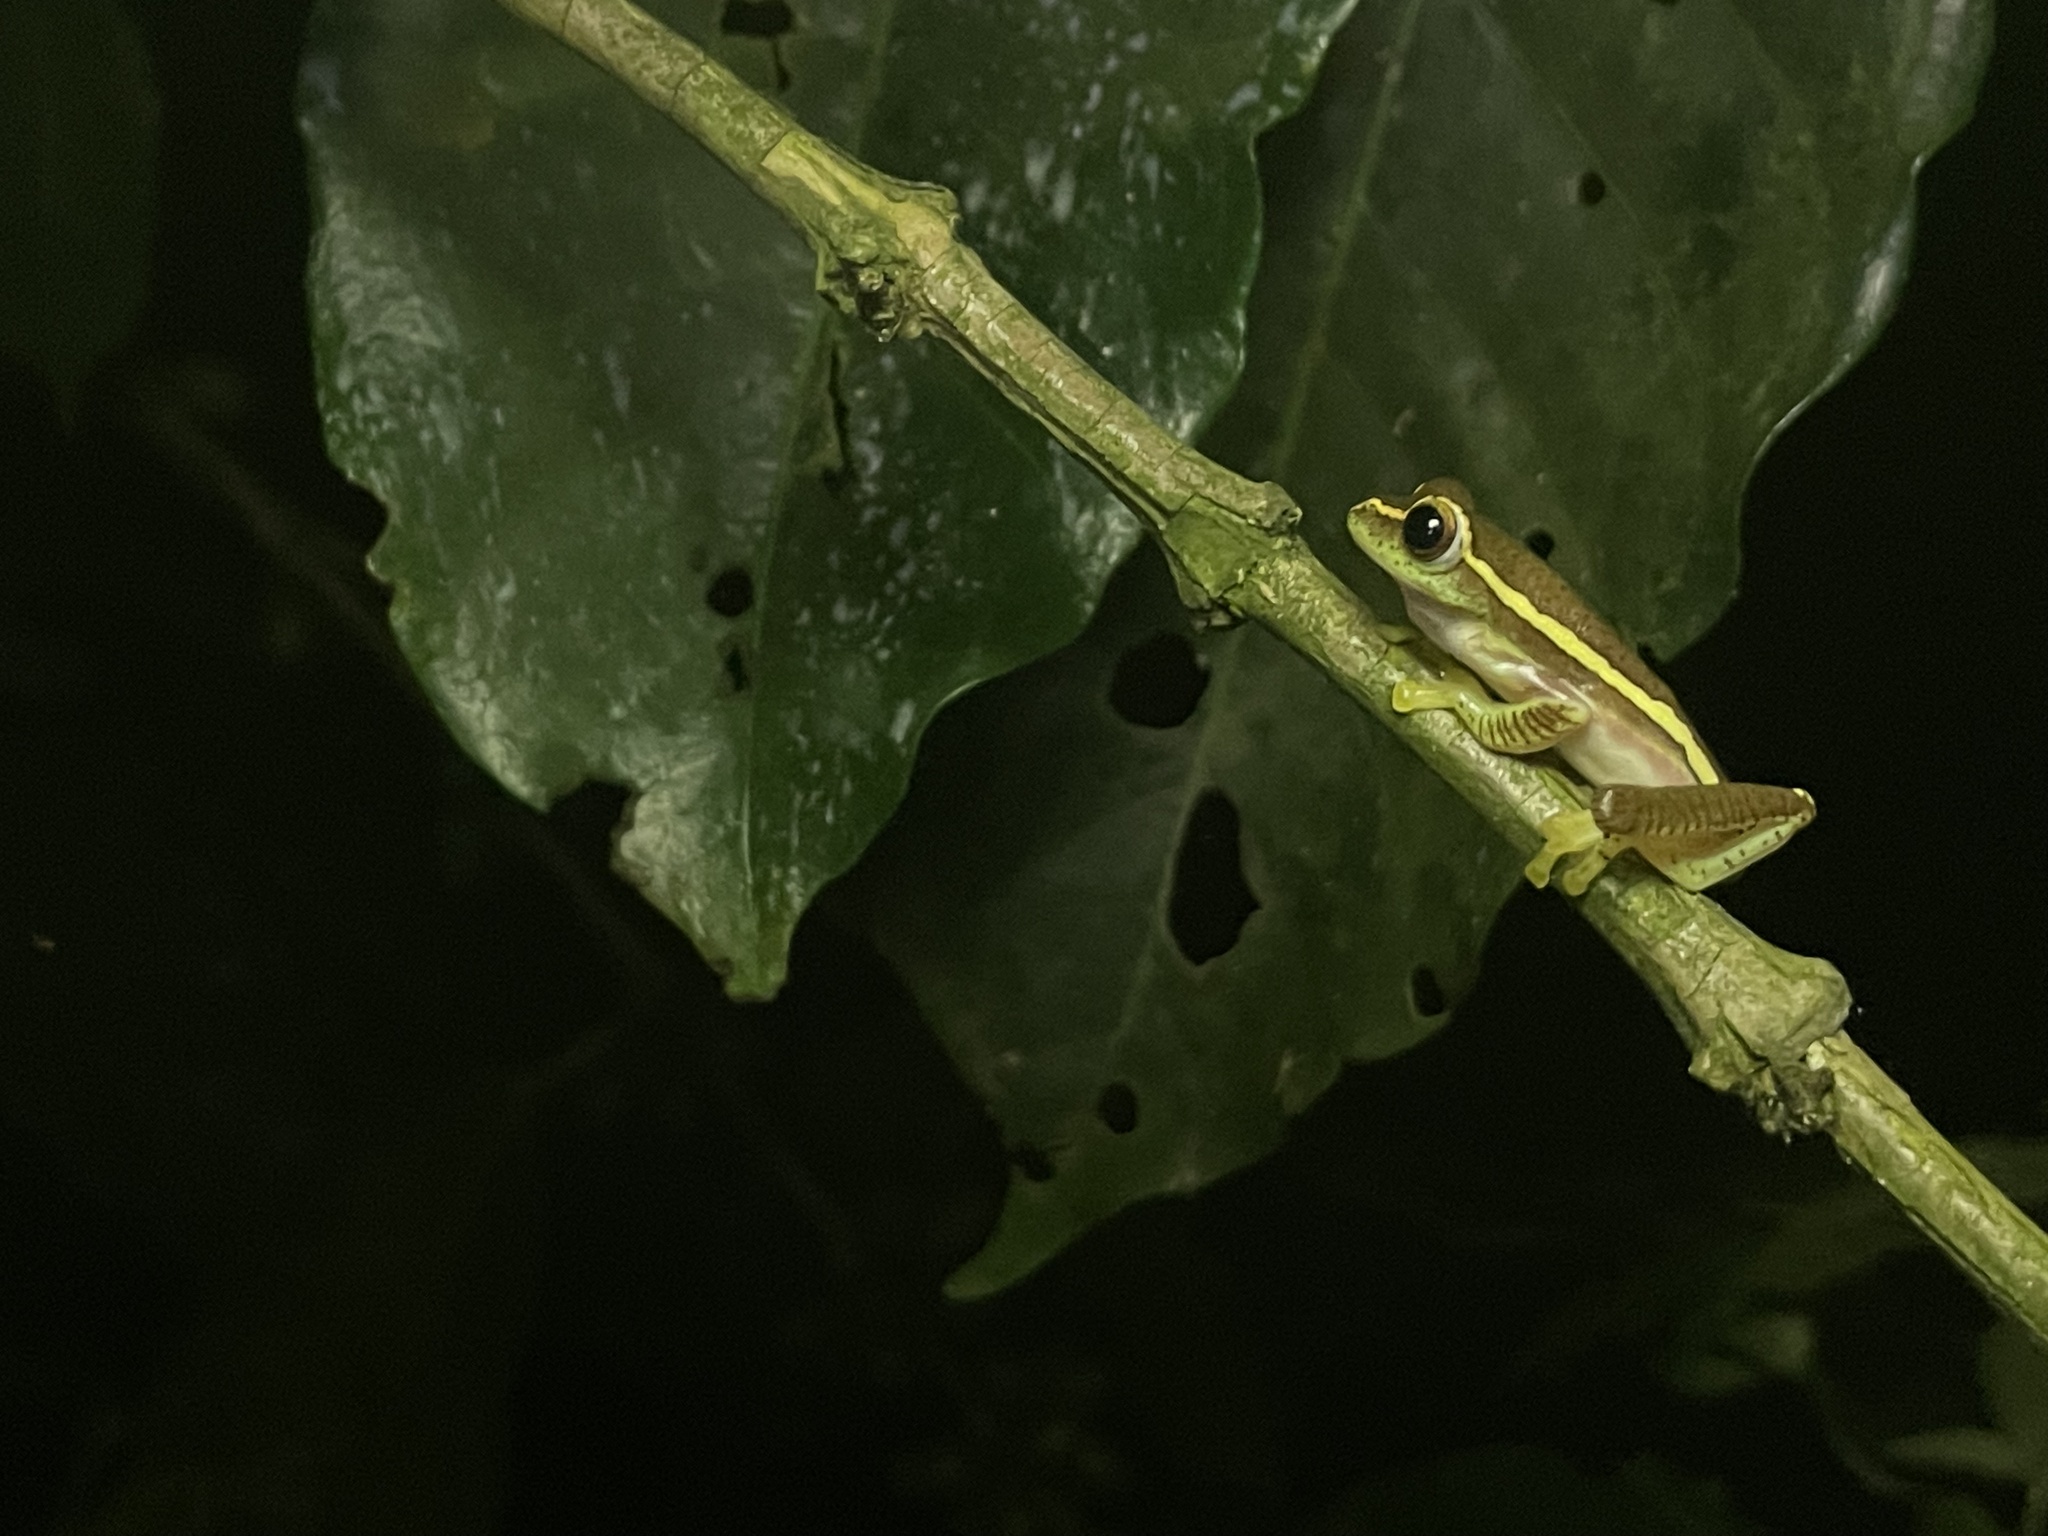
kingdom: Animalia
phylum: Chordata
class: Amphibia
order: Anura
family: Rhacophoridae
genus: Rhacophorus
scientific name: Rhacophorus lateralis
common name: Boulenger's tree frog
